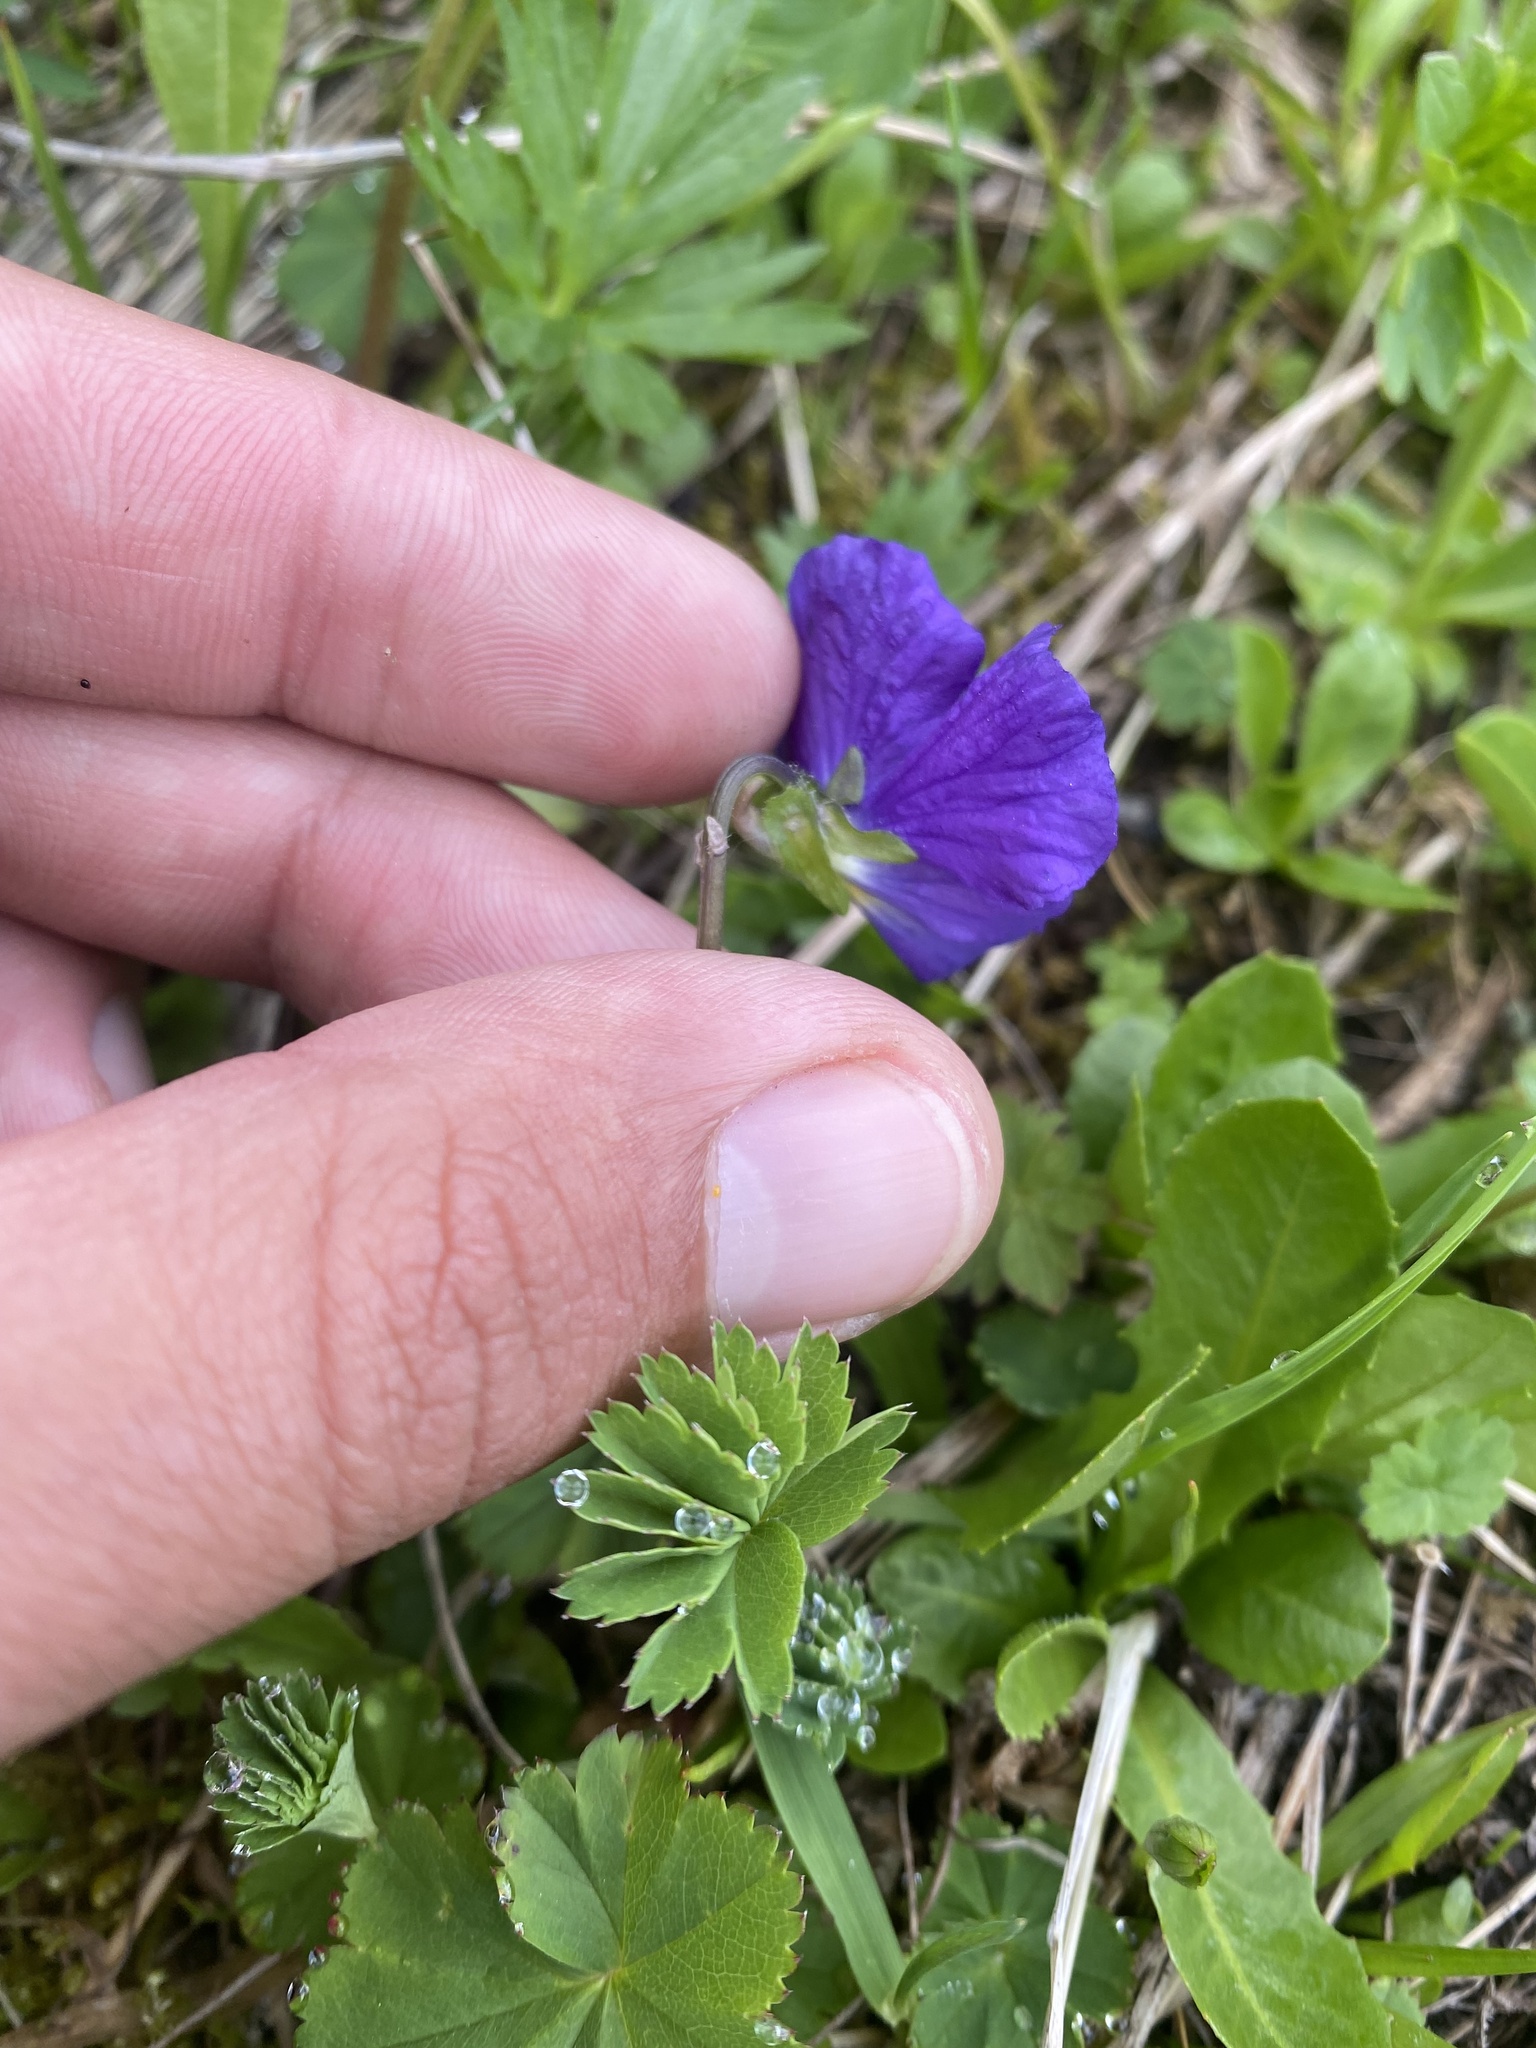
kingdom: Plantae
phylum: Tracheophyta
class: Magnoliopsida
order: Malpighiales
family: Violaceae
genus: Viola
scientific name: Viola oreades
